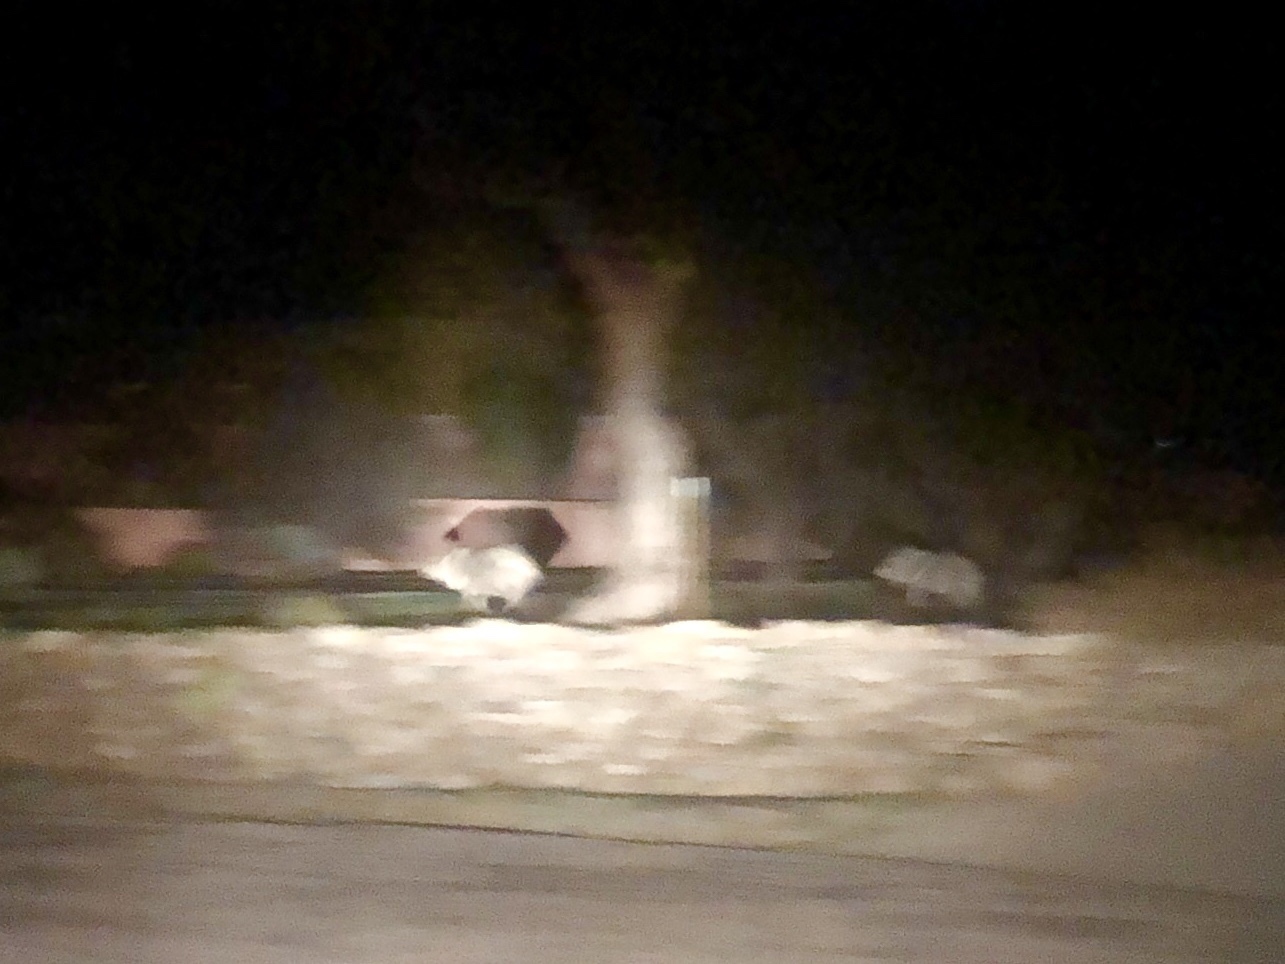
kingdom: Animalia
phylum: Chordata
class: Mammalia
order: Artiodactyla
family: Tayassuidae
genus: Pecari
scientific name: Pecari tajacu
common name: Collared peccary
